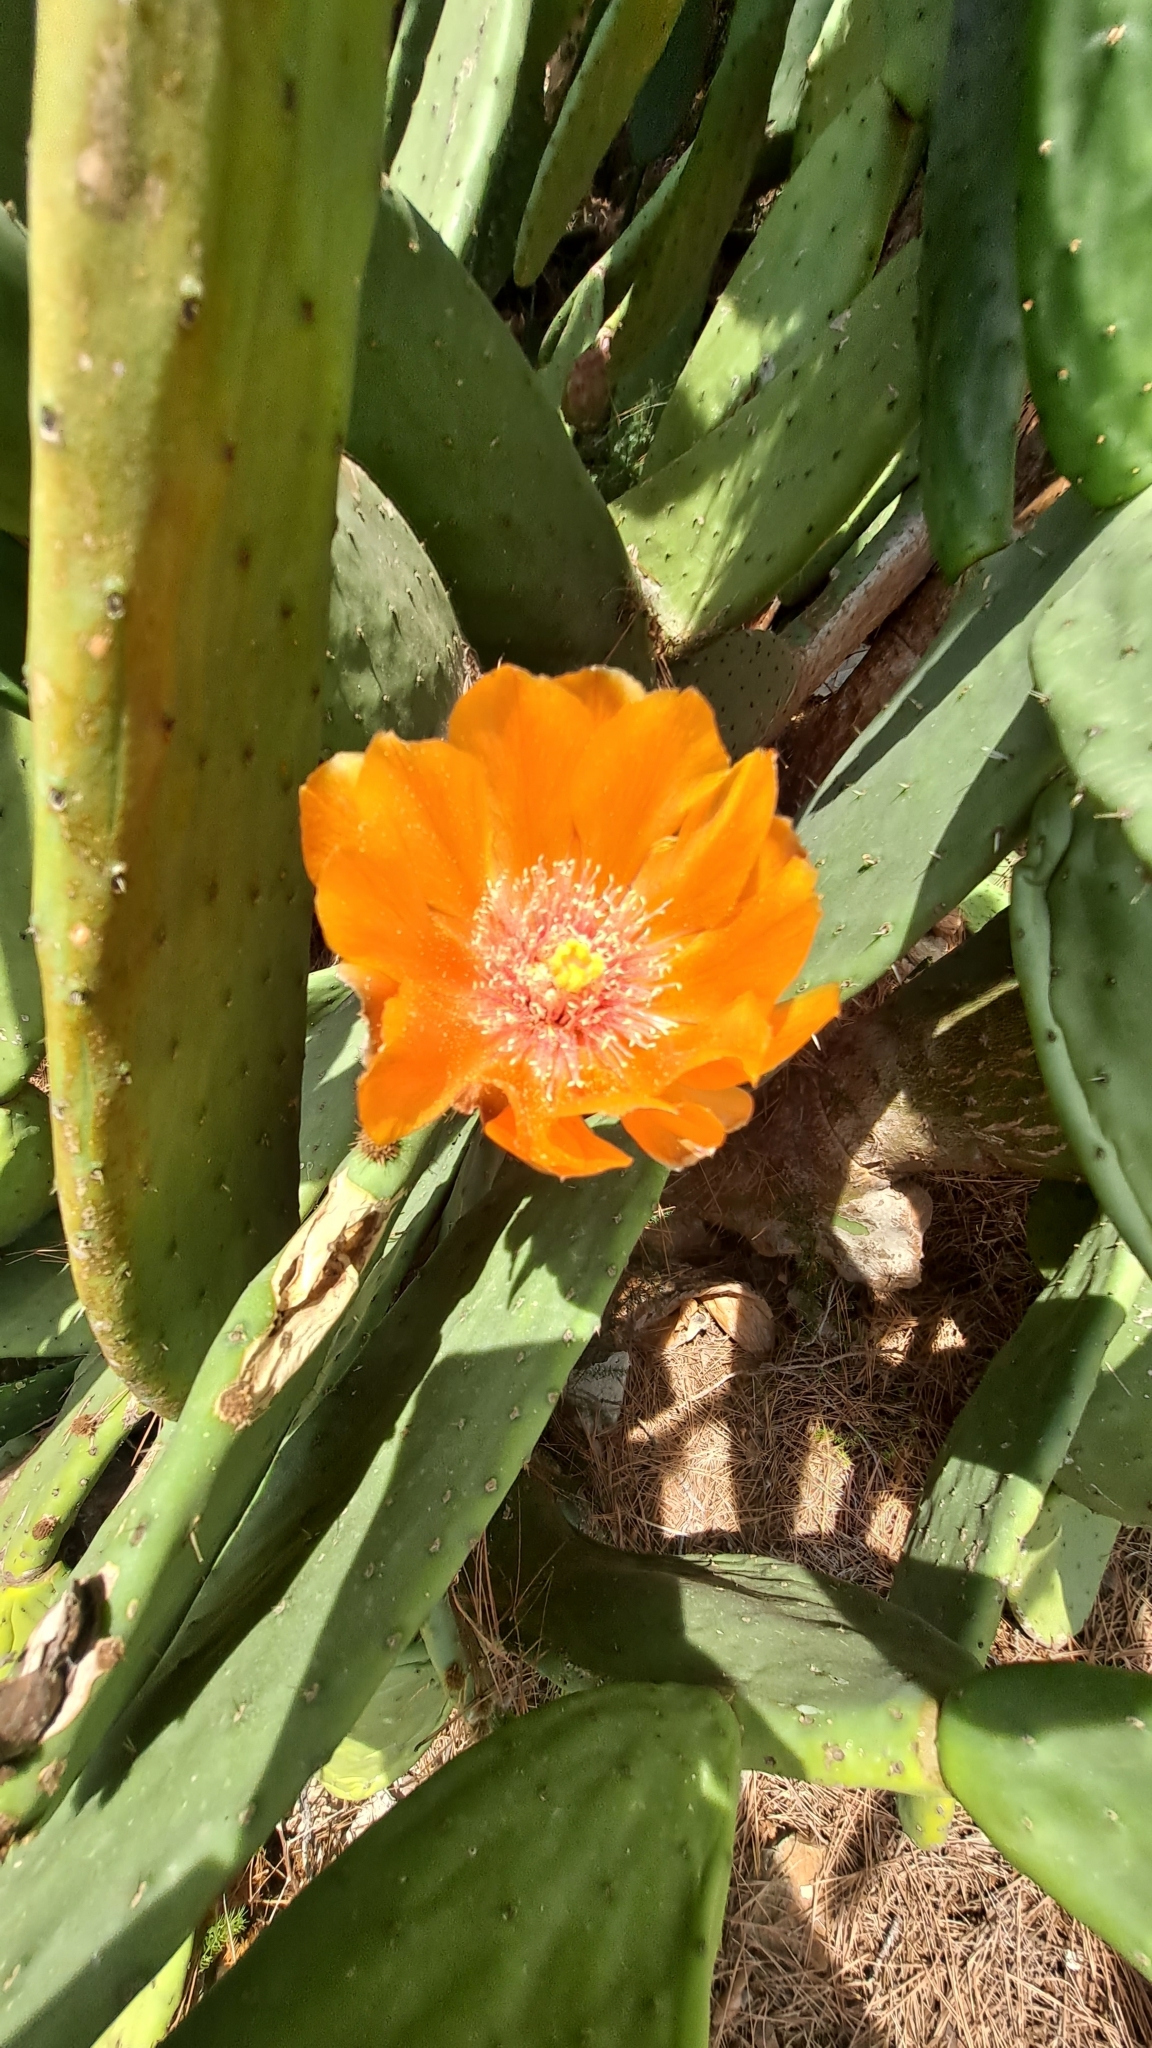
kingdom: Plantae
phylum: Tracheophyta
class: Magnoliopsida
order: Caryophyllales
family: Cactaceae
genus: Opuntia
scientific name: Opuntia ficus-indica
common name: Barbary fig
